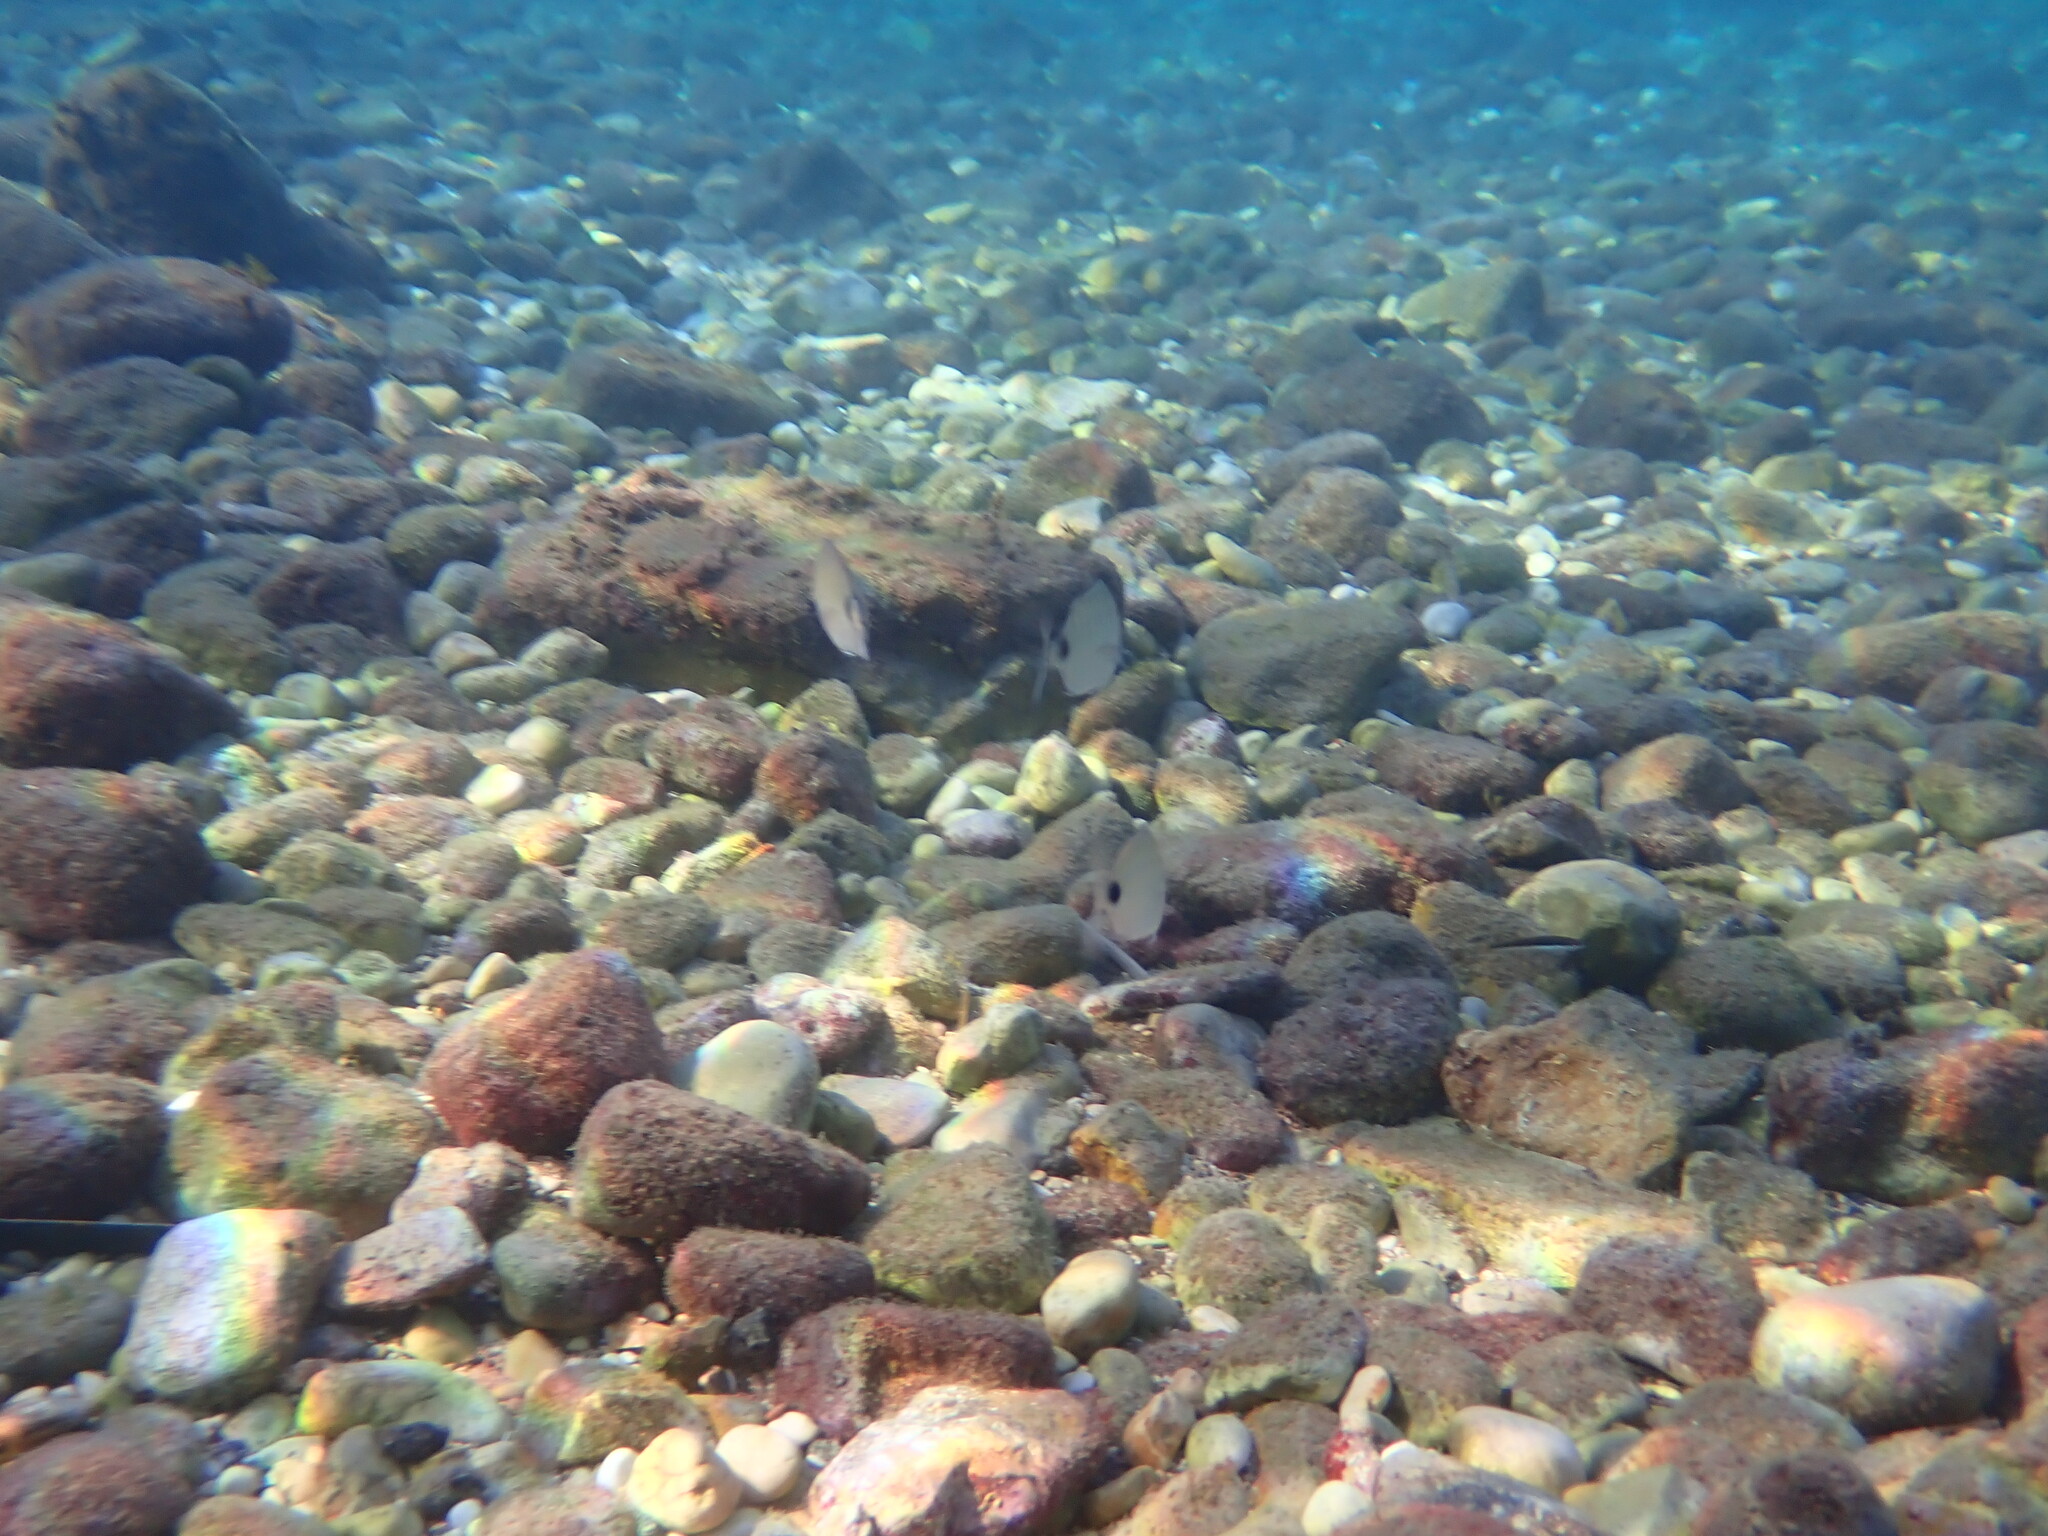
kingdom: Animalia
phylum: Chordata
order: Perciformes
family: Sparidae
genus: Diplodus
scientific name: Diplodus sargus
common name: White seabream
